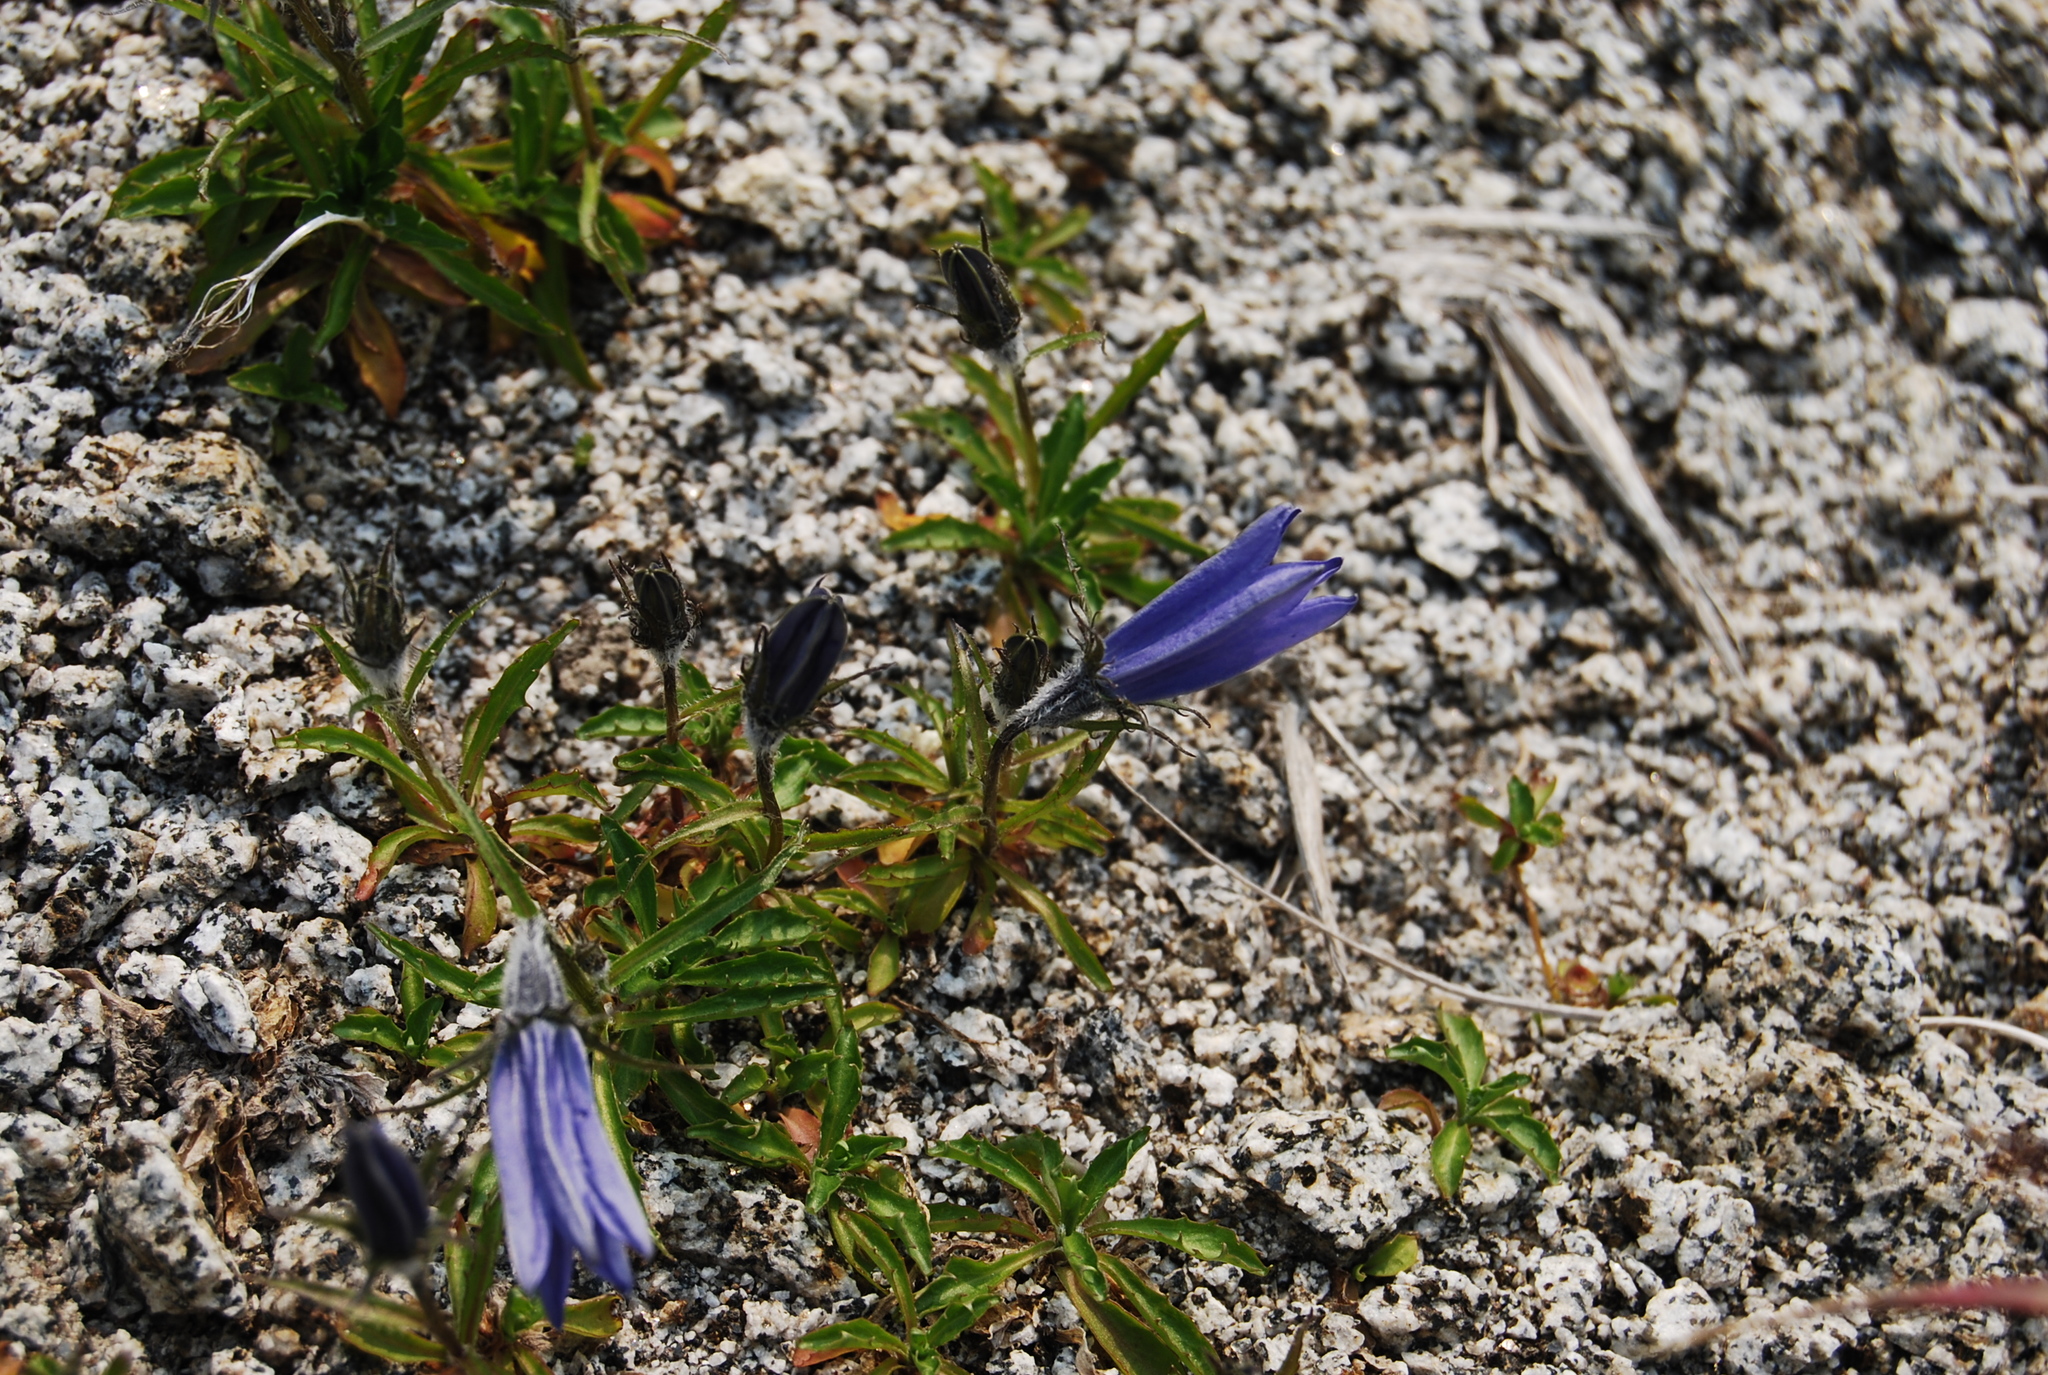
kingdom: Plantae
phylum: Tracheophyta
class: Magnoliopsida
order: Asterales
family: Campanulaceae
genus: Campanula
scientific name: Campanula lasiocarpa
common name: Mountain harebell
